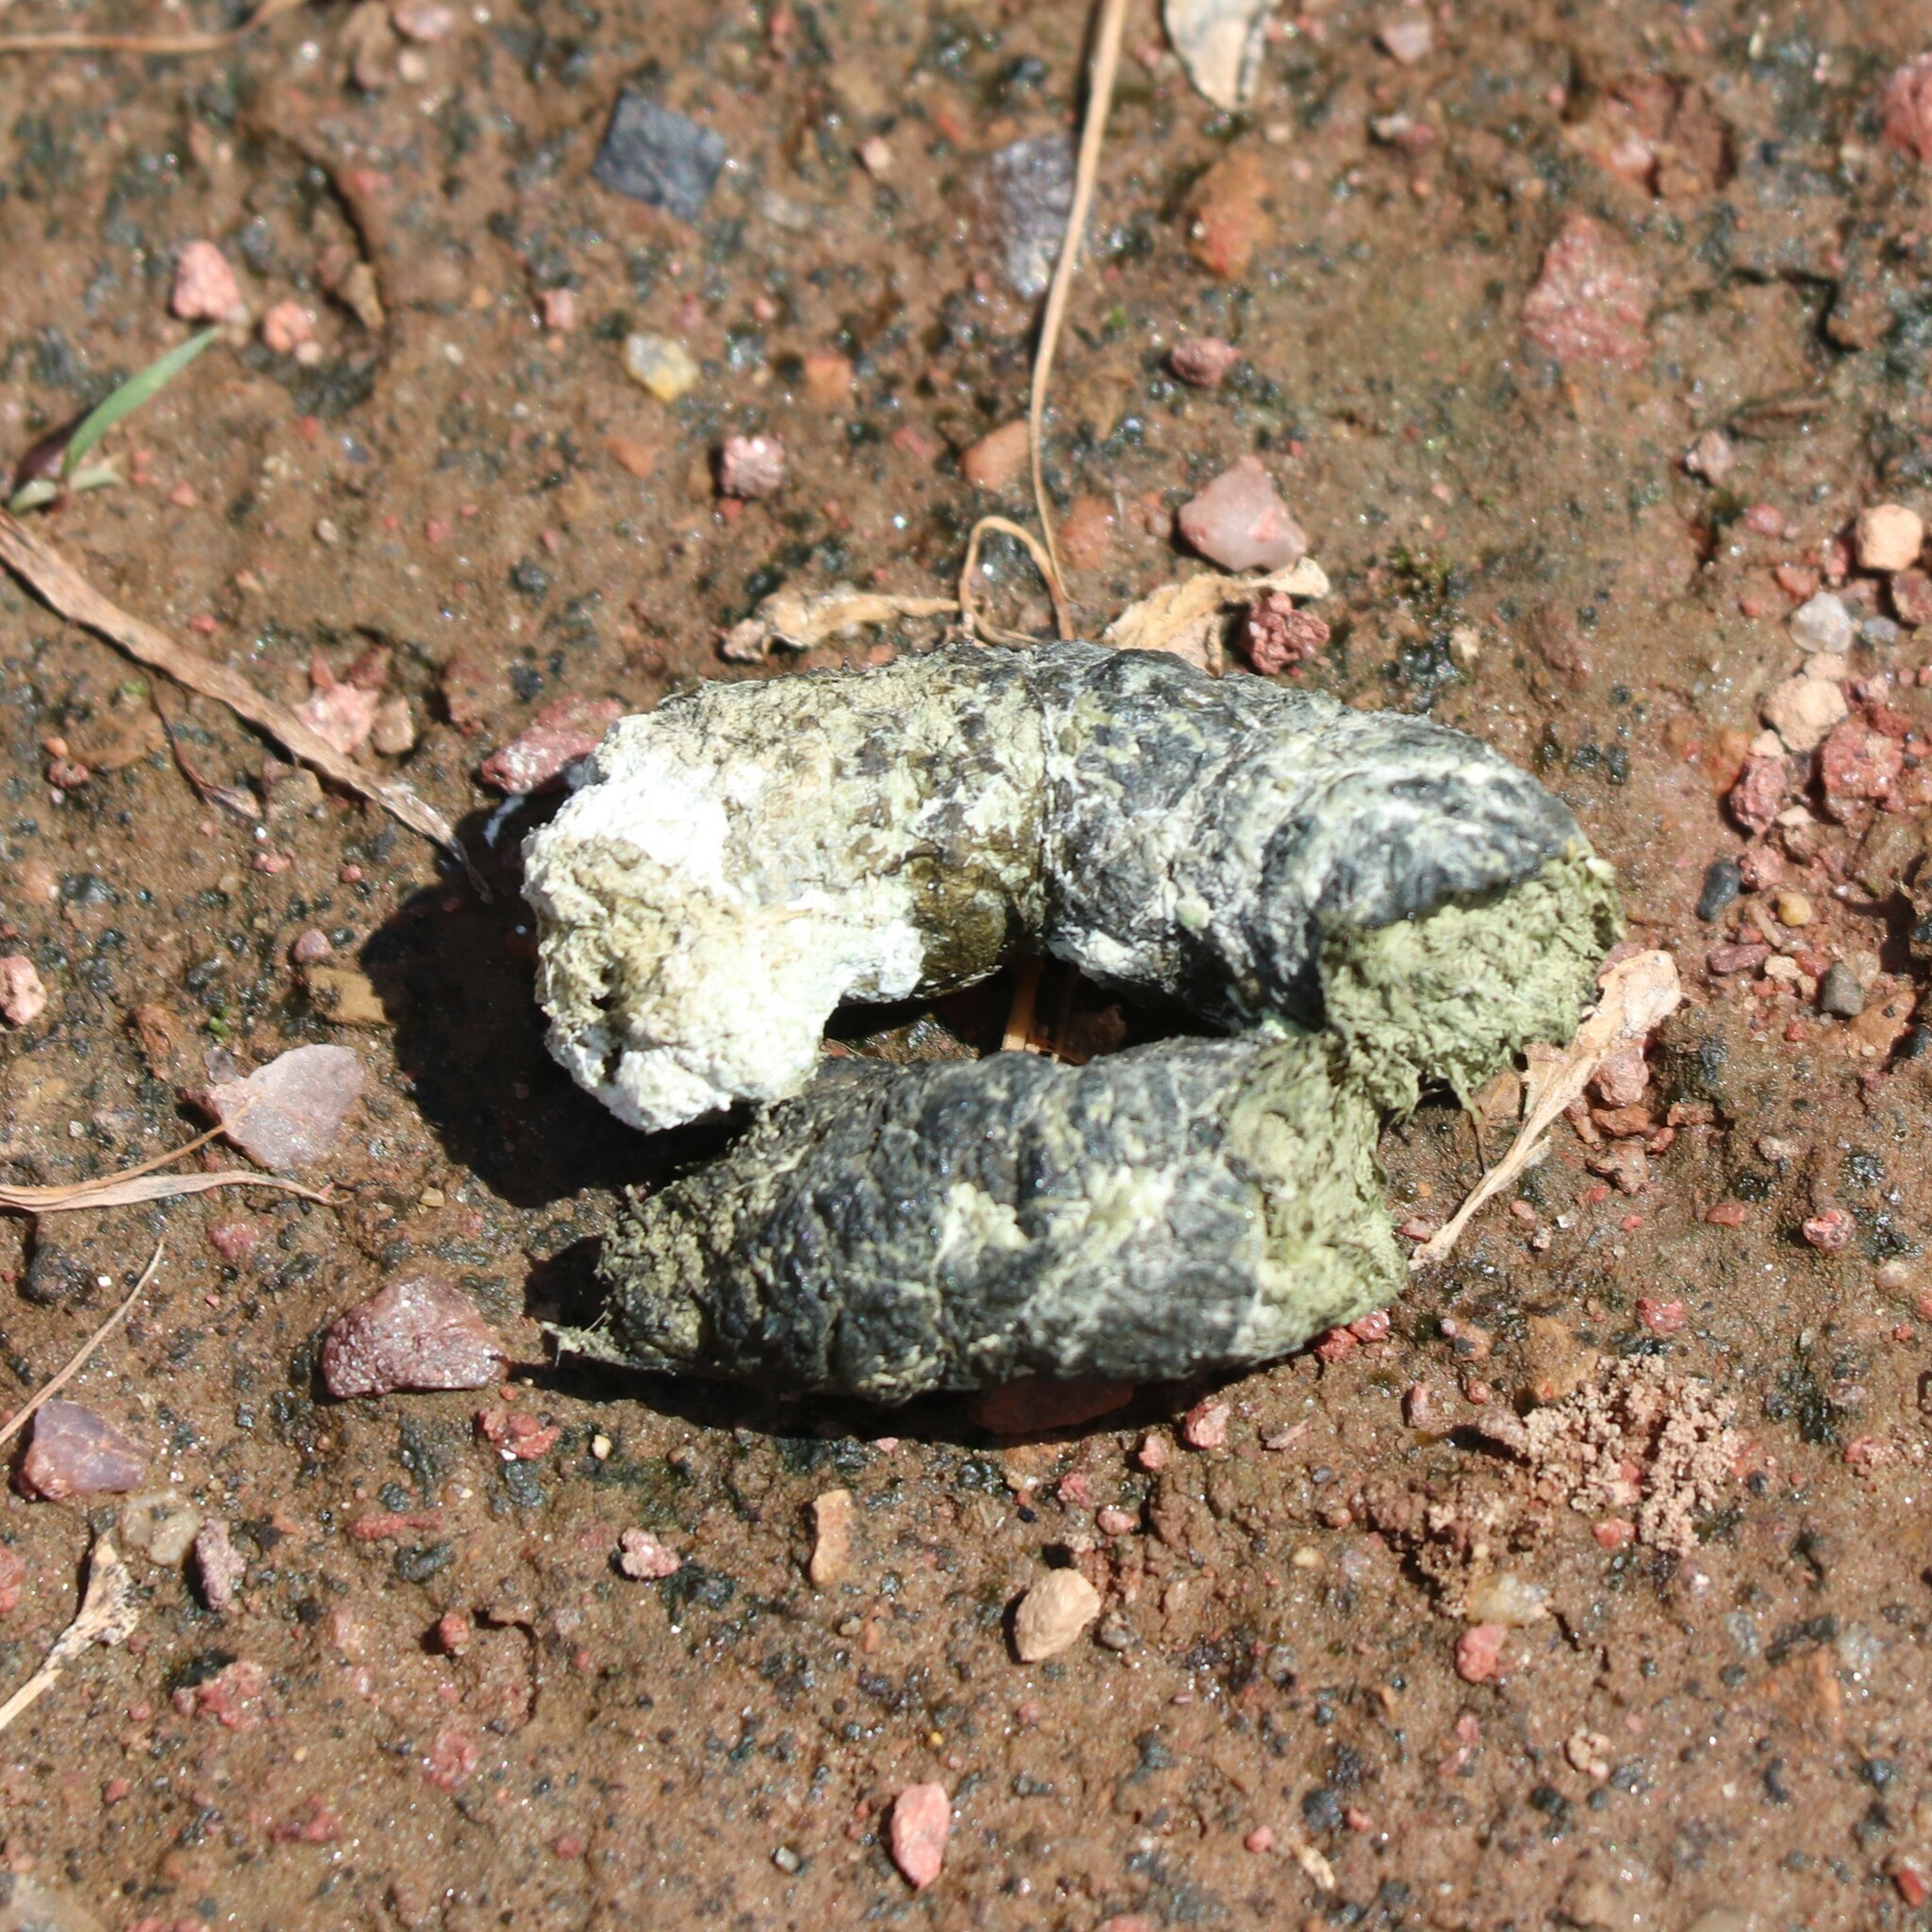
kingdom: Animalia
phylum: Chordata
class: Aves
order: Anseriformes
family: Anatidae
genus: Branta
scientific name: Branta canadensis
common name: Canada goose
